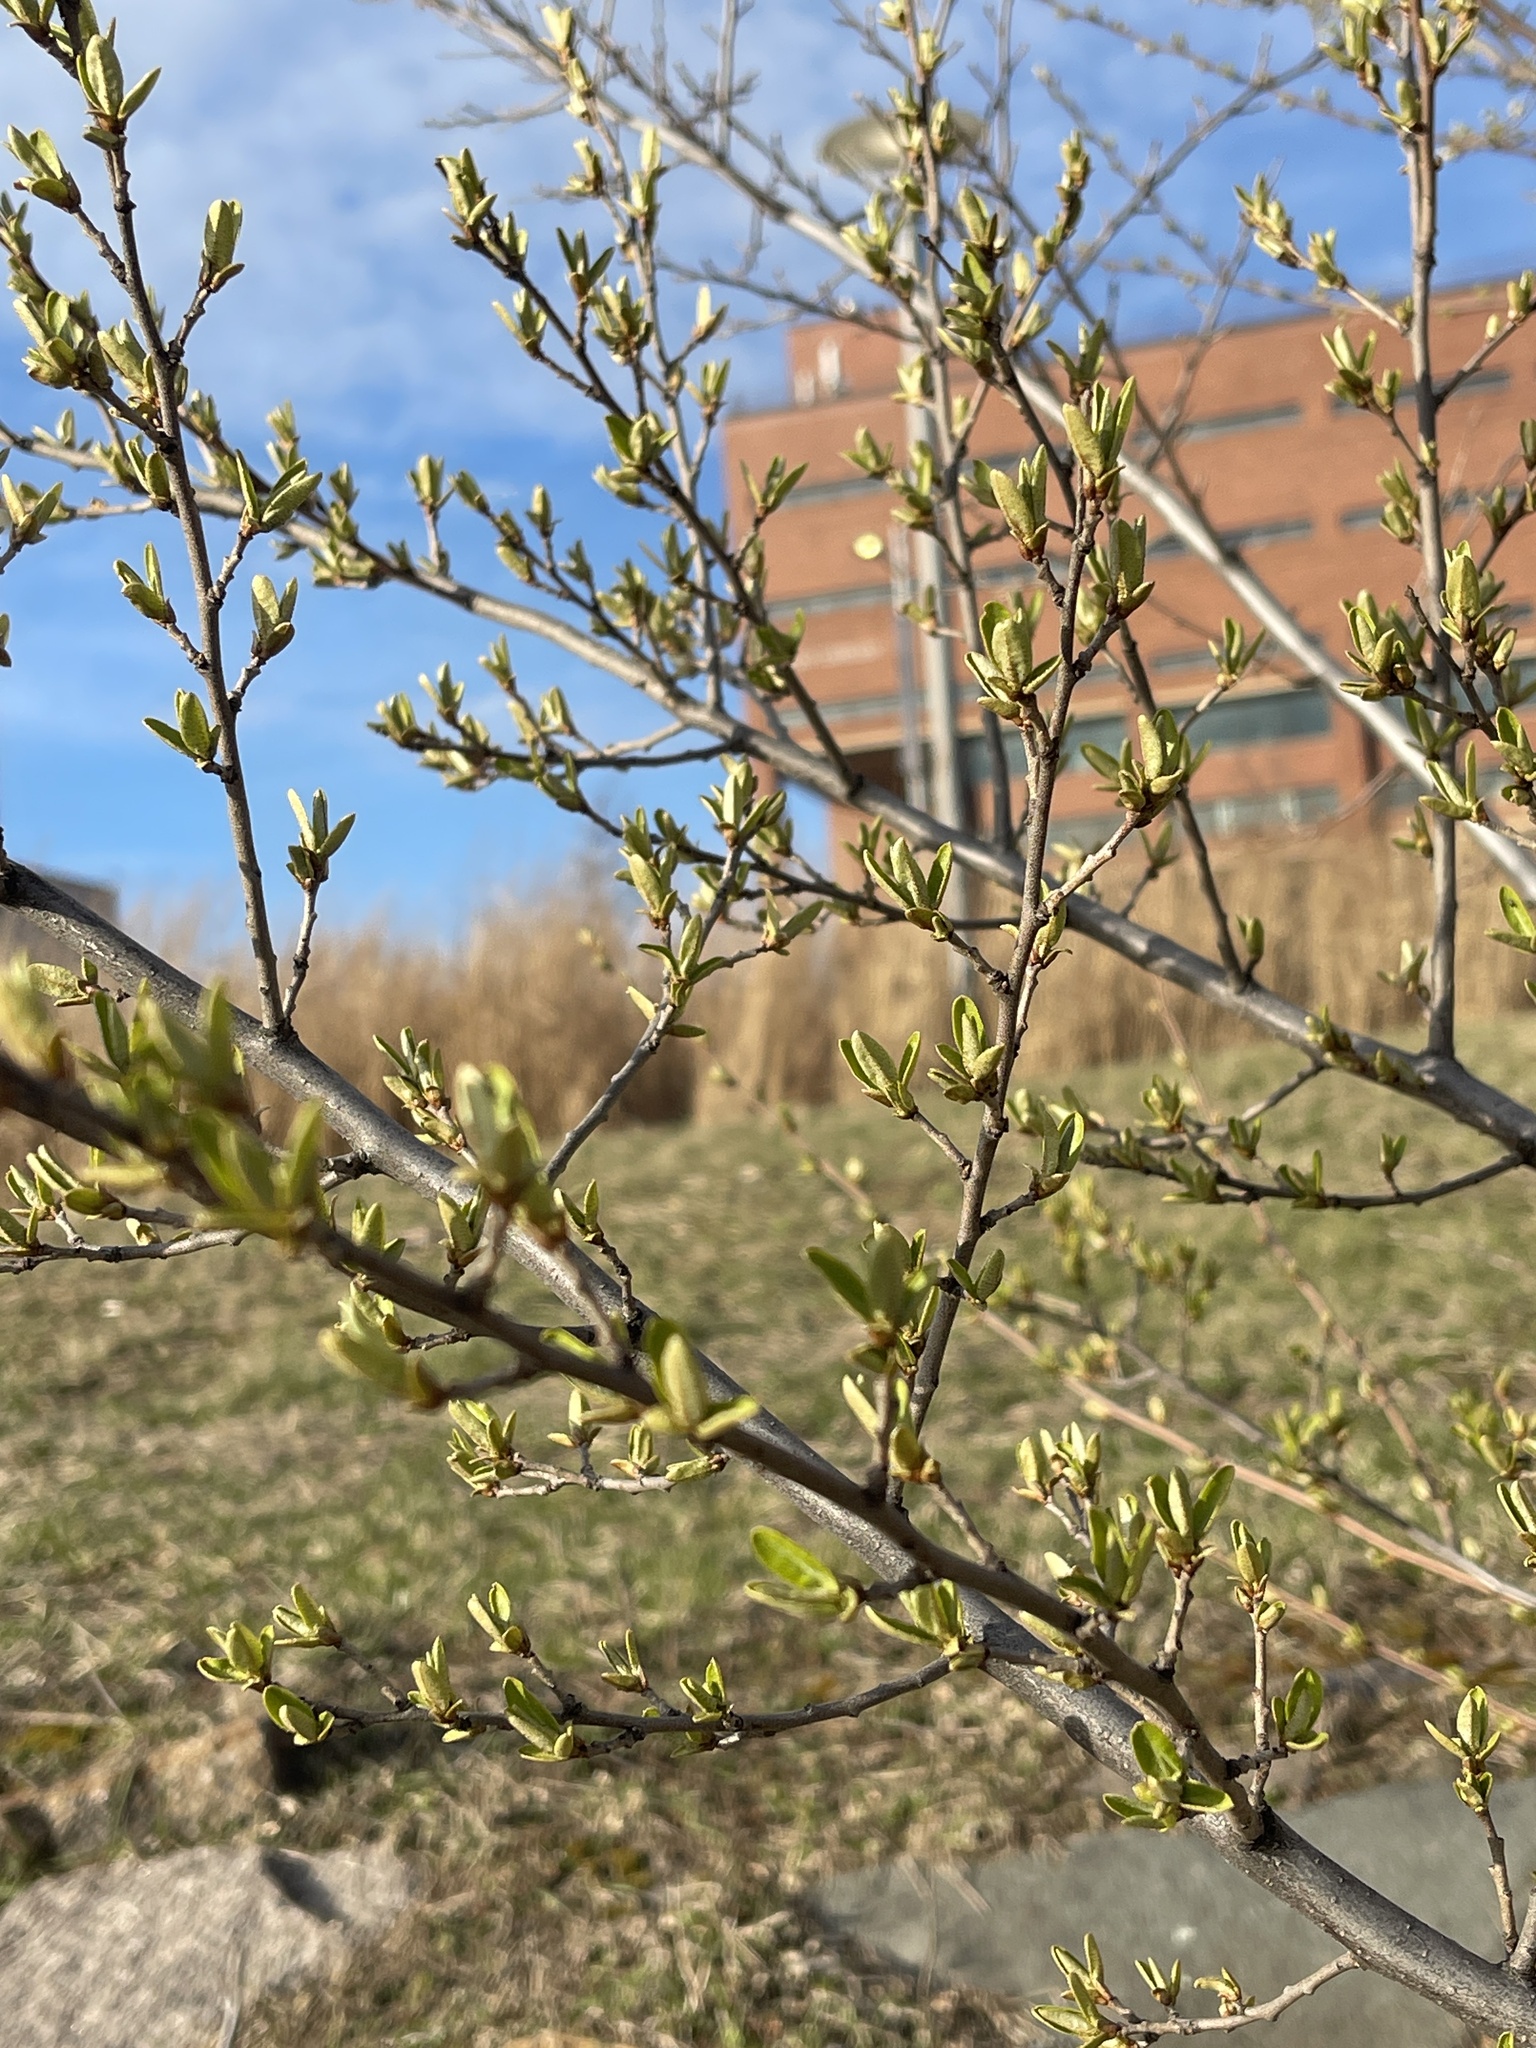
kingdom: Plantae
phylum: Tracheophyta
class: Magnoliopsida
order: Rosales
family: Elaeagnaceae
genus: Elaeagnus
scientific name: Elaeagnus umbellata
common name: Autumn olive
